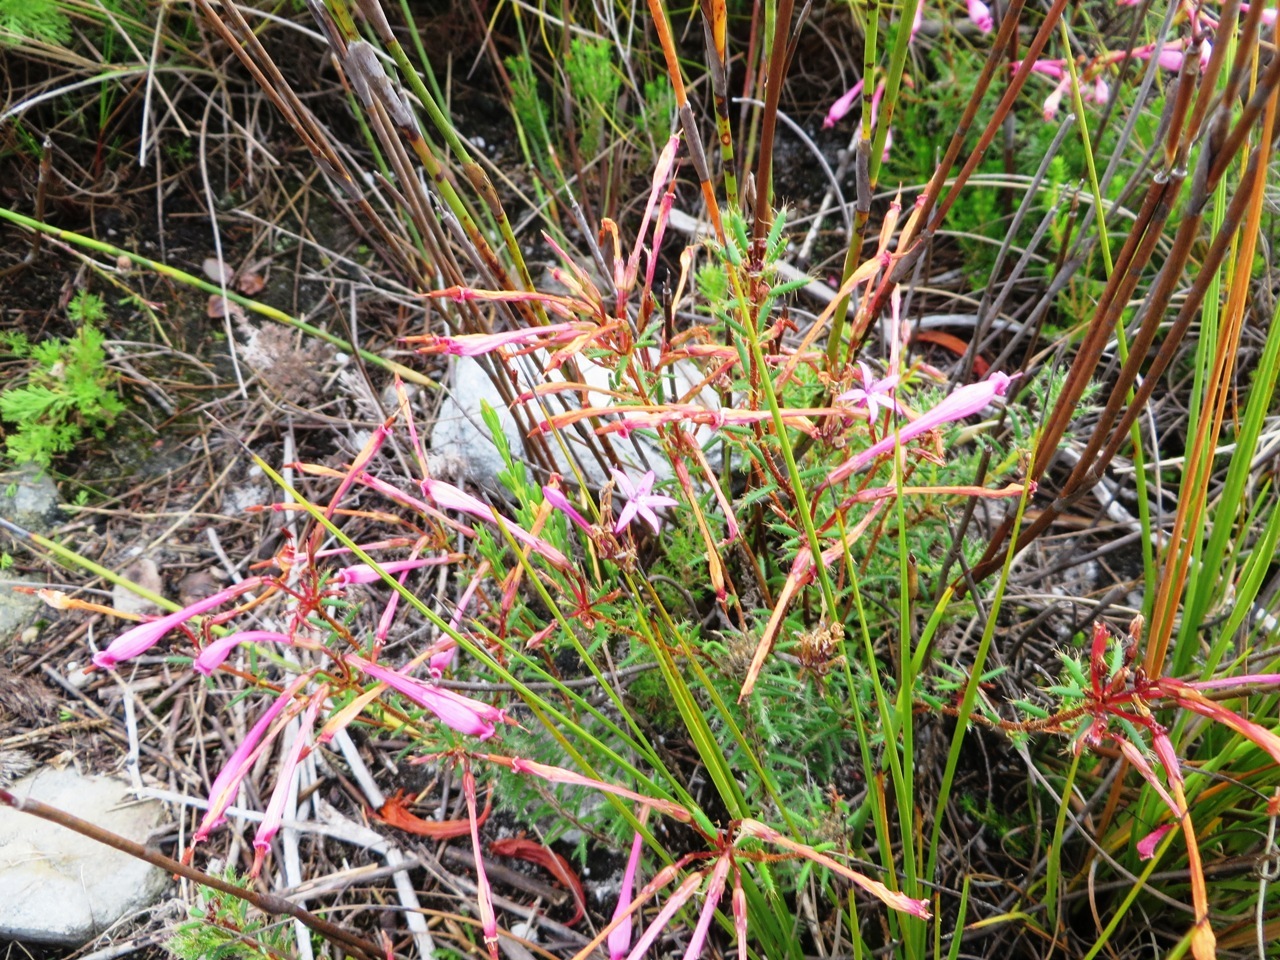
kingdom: Plantae
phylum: Tracheophyta
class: Magnoliopsida
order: Ericales
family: Ericaceae
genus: Erica
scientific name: Erica embothriifolia
